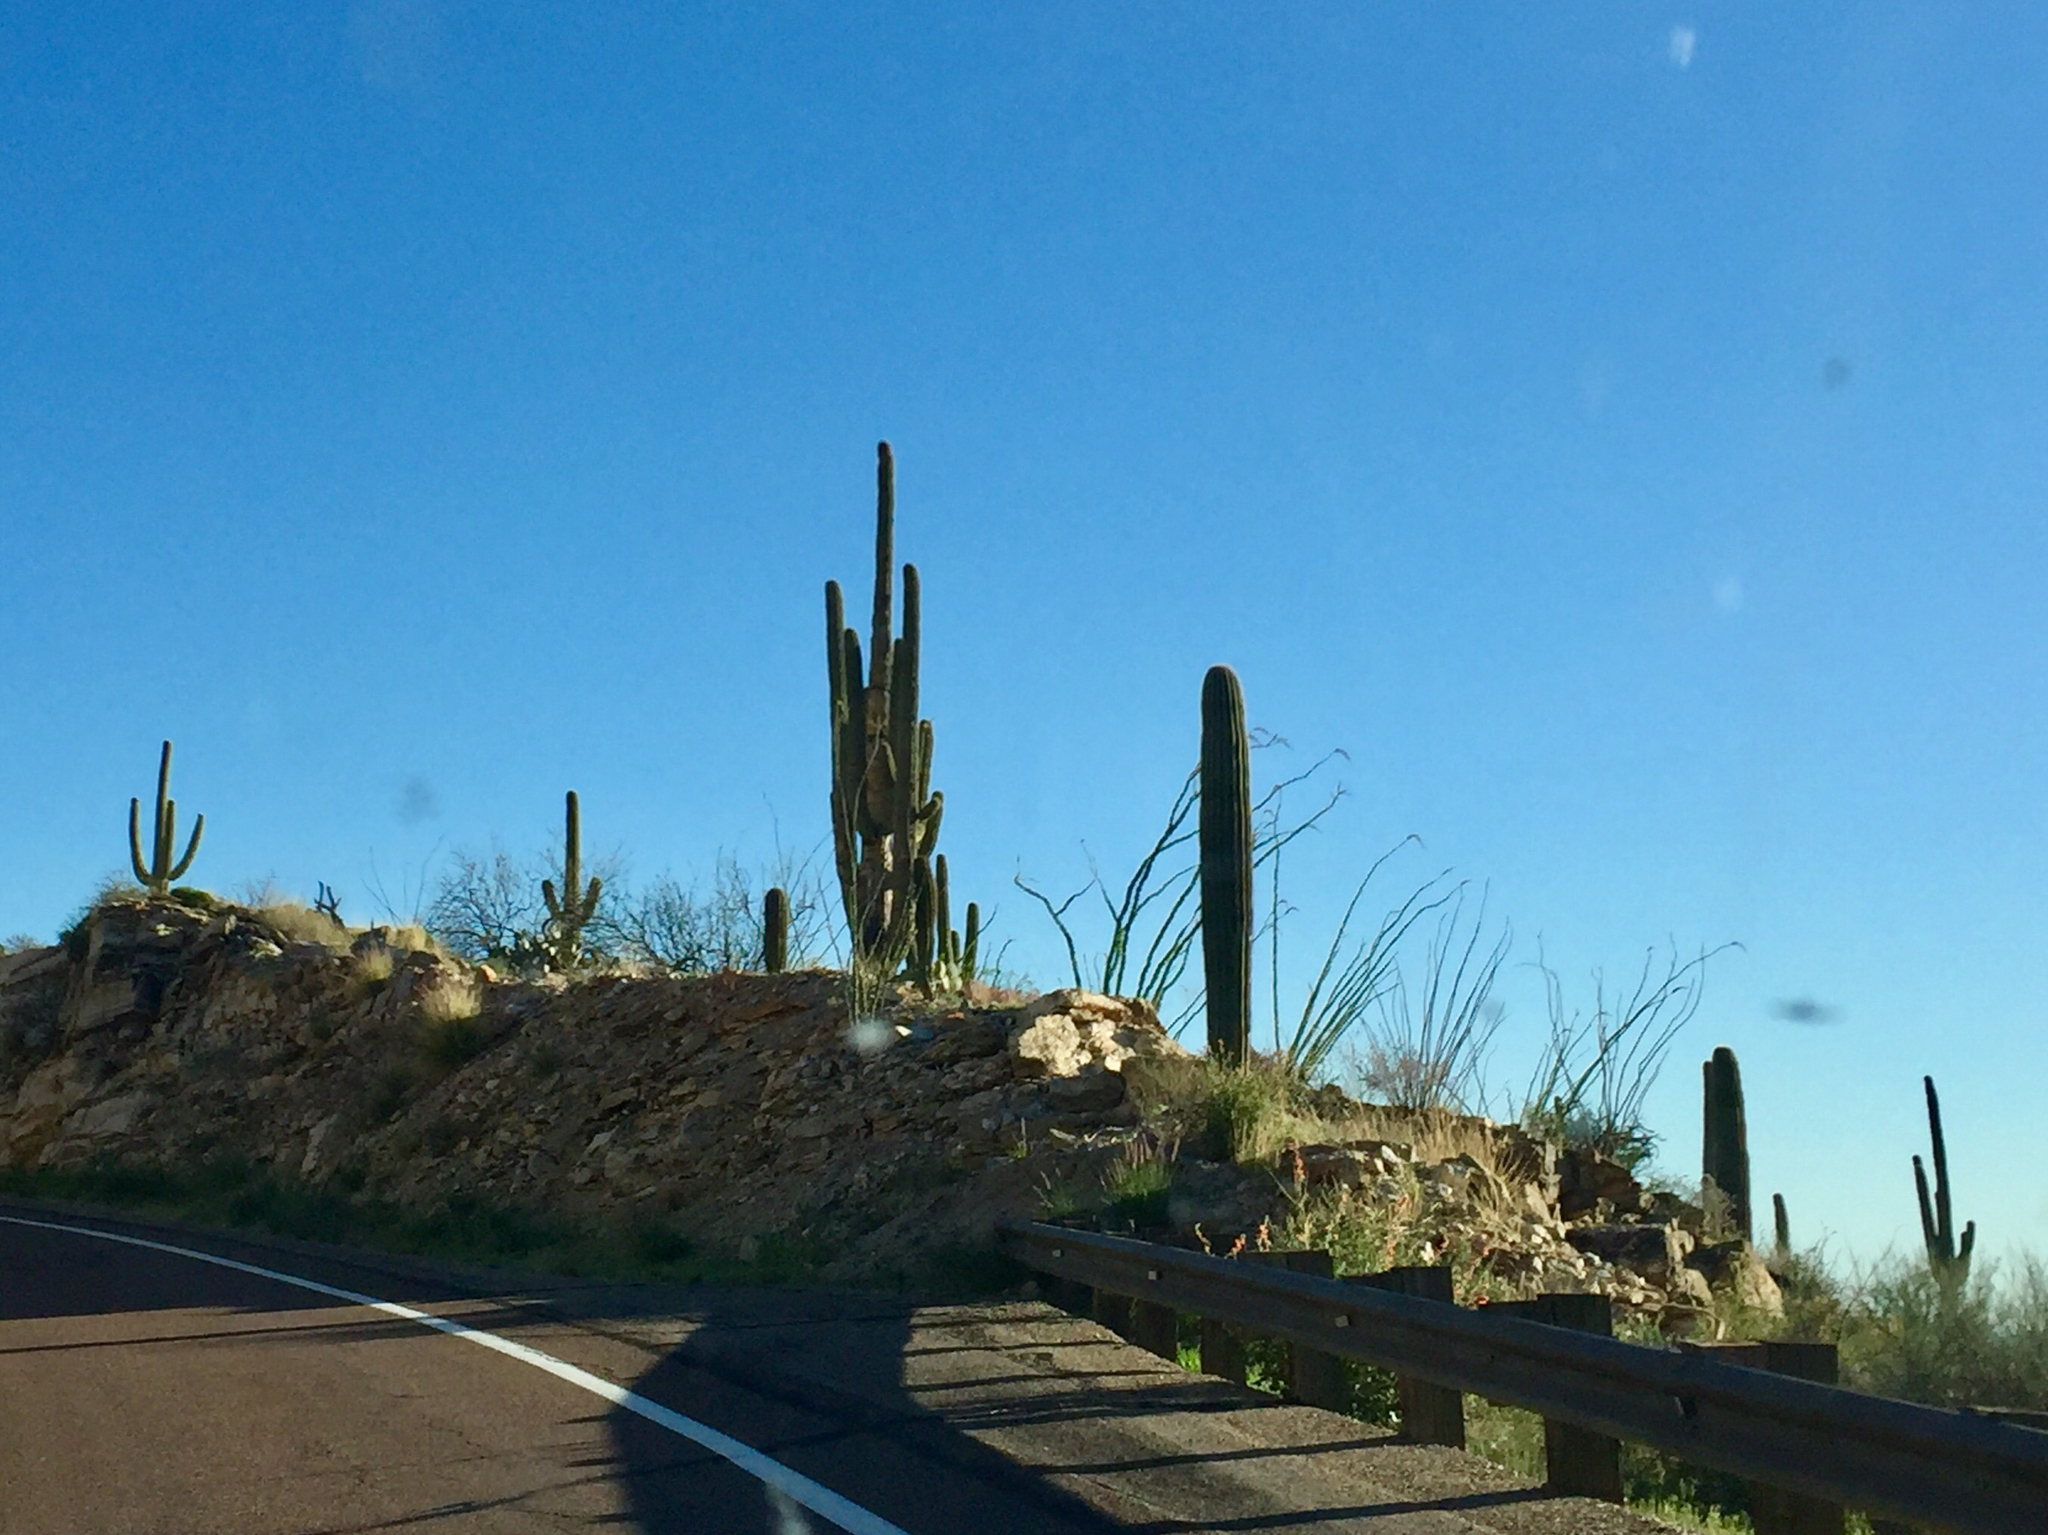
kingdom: Plantae
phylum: Tracheophyta
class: Magnoliopsida
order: Caryophyllales
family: Cactaceae
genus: Carnegiea
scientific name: Carnegiea gigantea
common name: Saguaro
